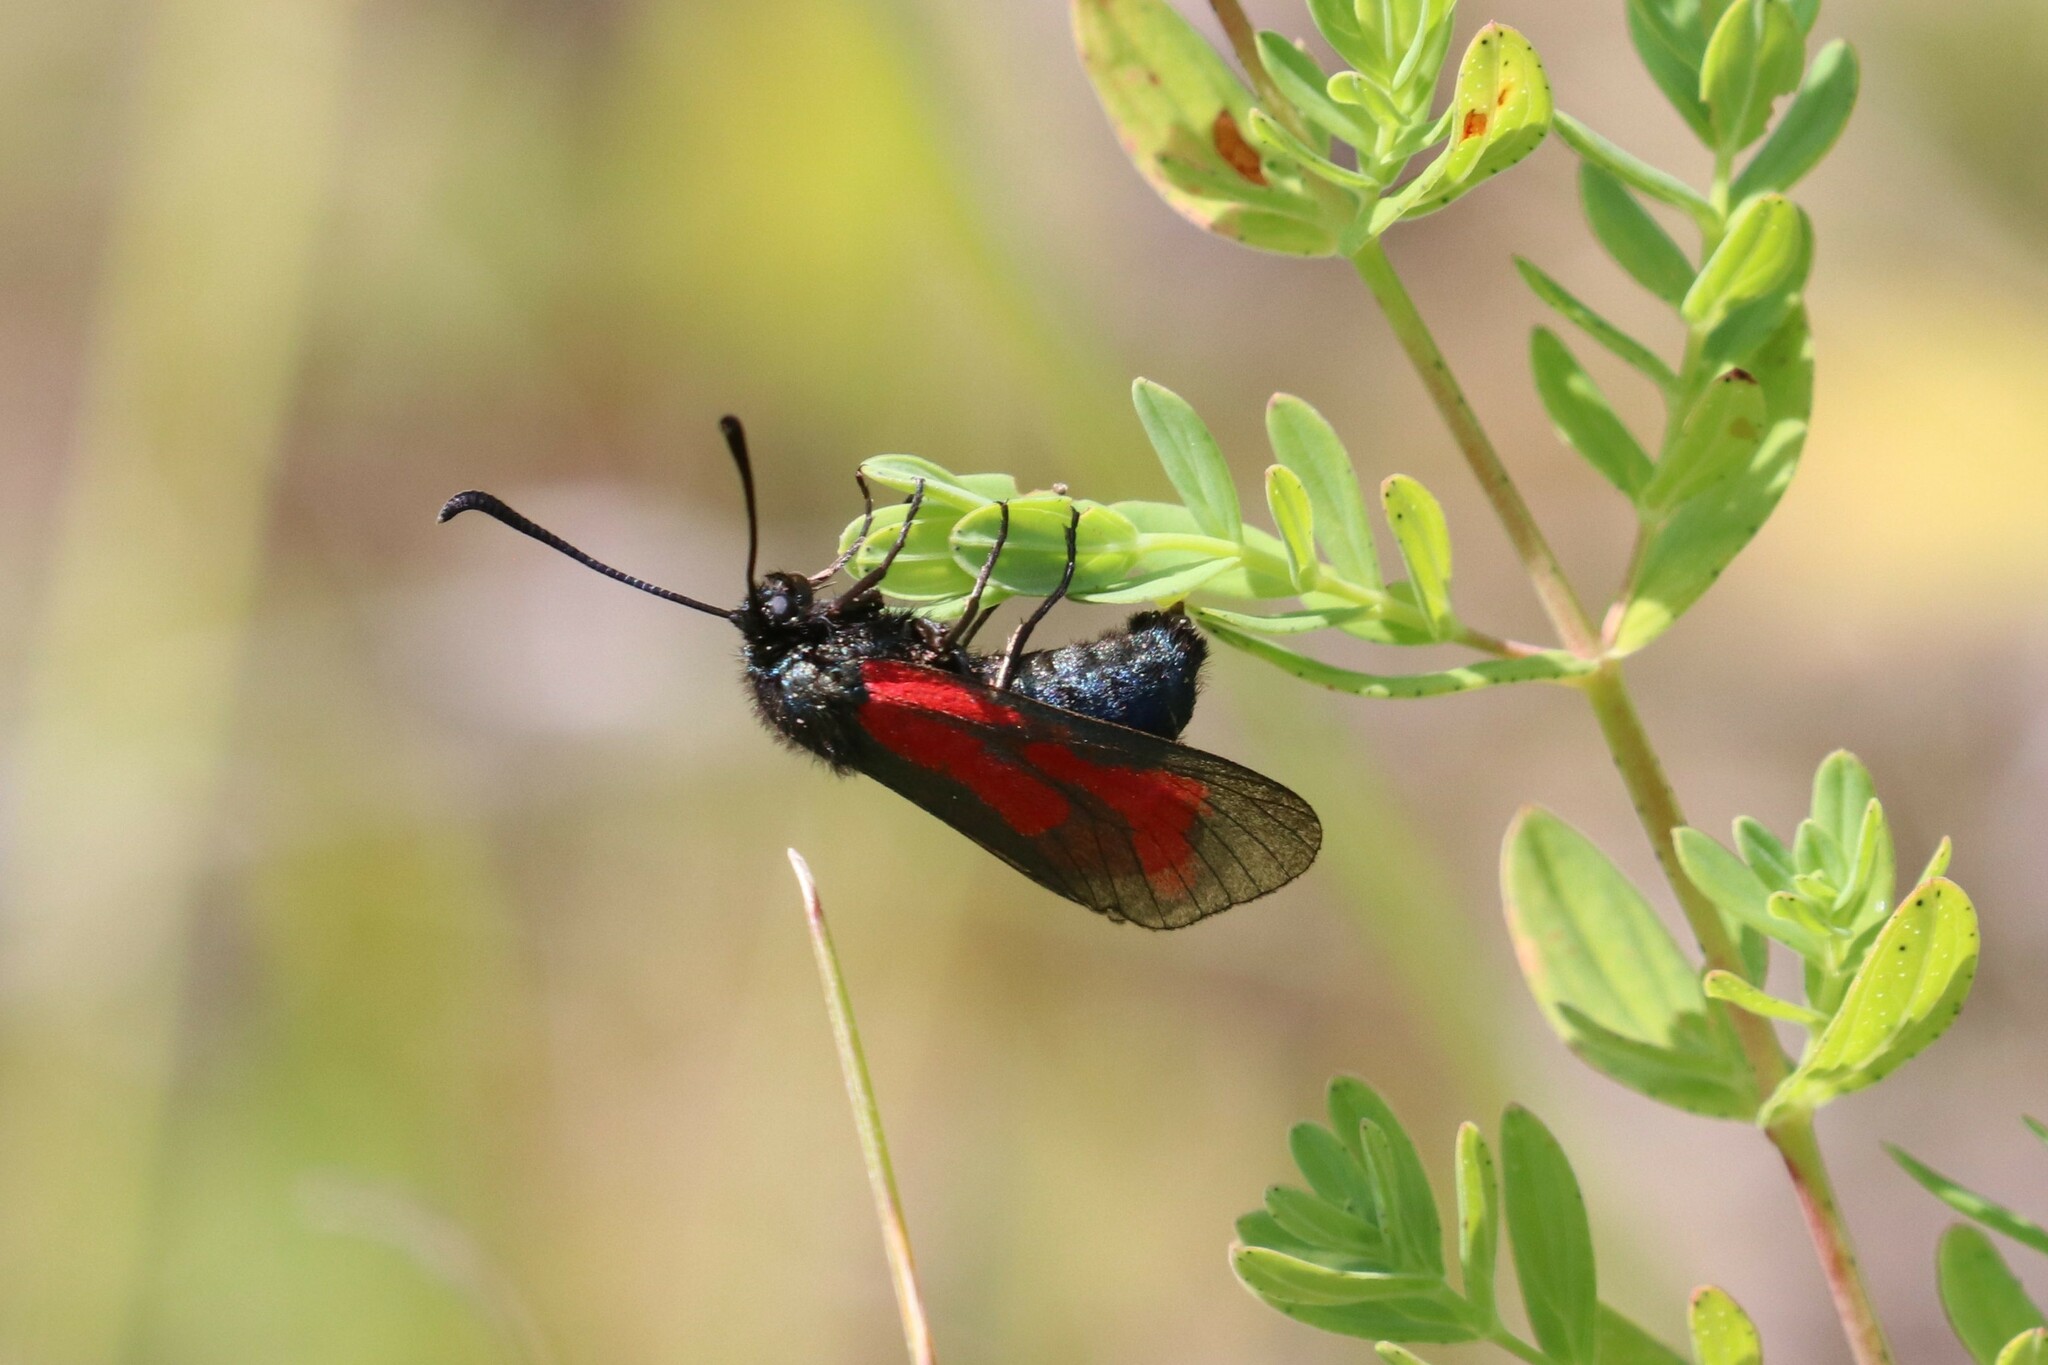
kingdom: Animalia
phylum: Arthropoda
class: Insecta
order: Lepidoptera
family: Zygaenidae
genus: Zygaena
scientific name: Zygaena minos
